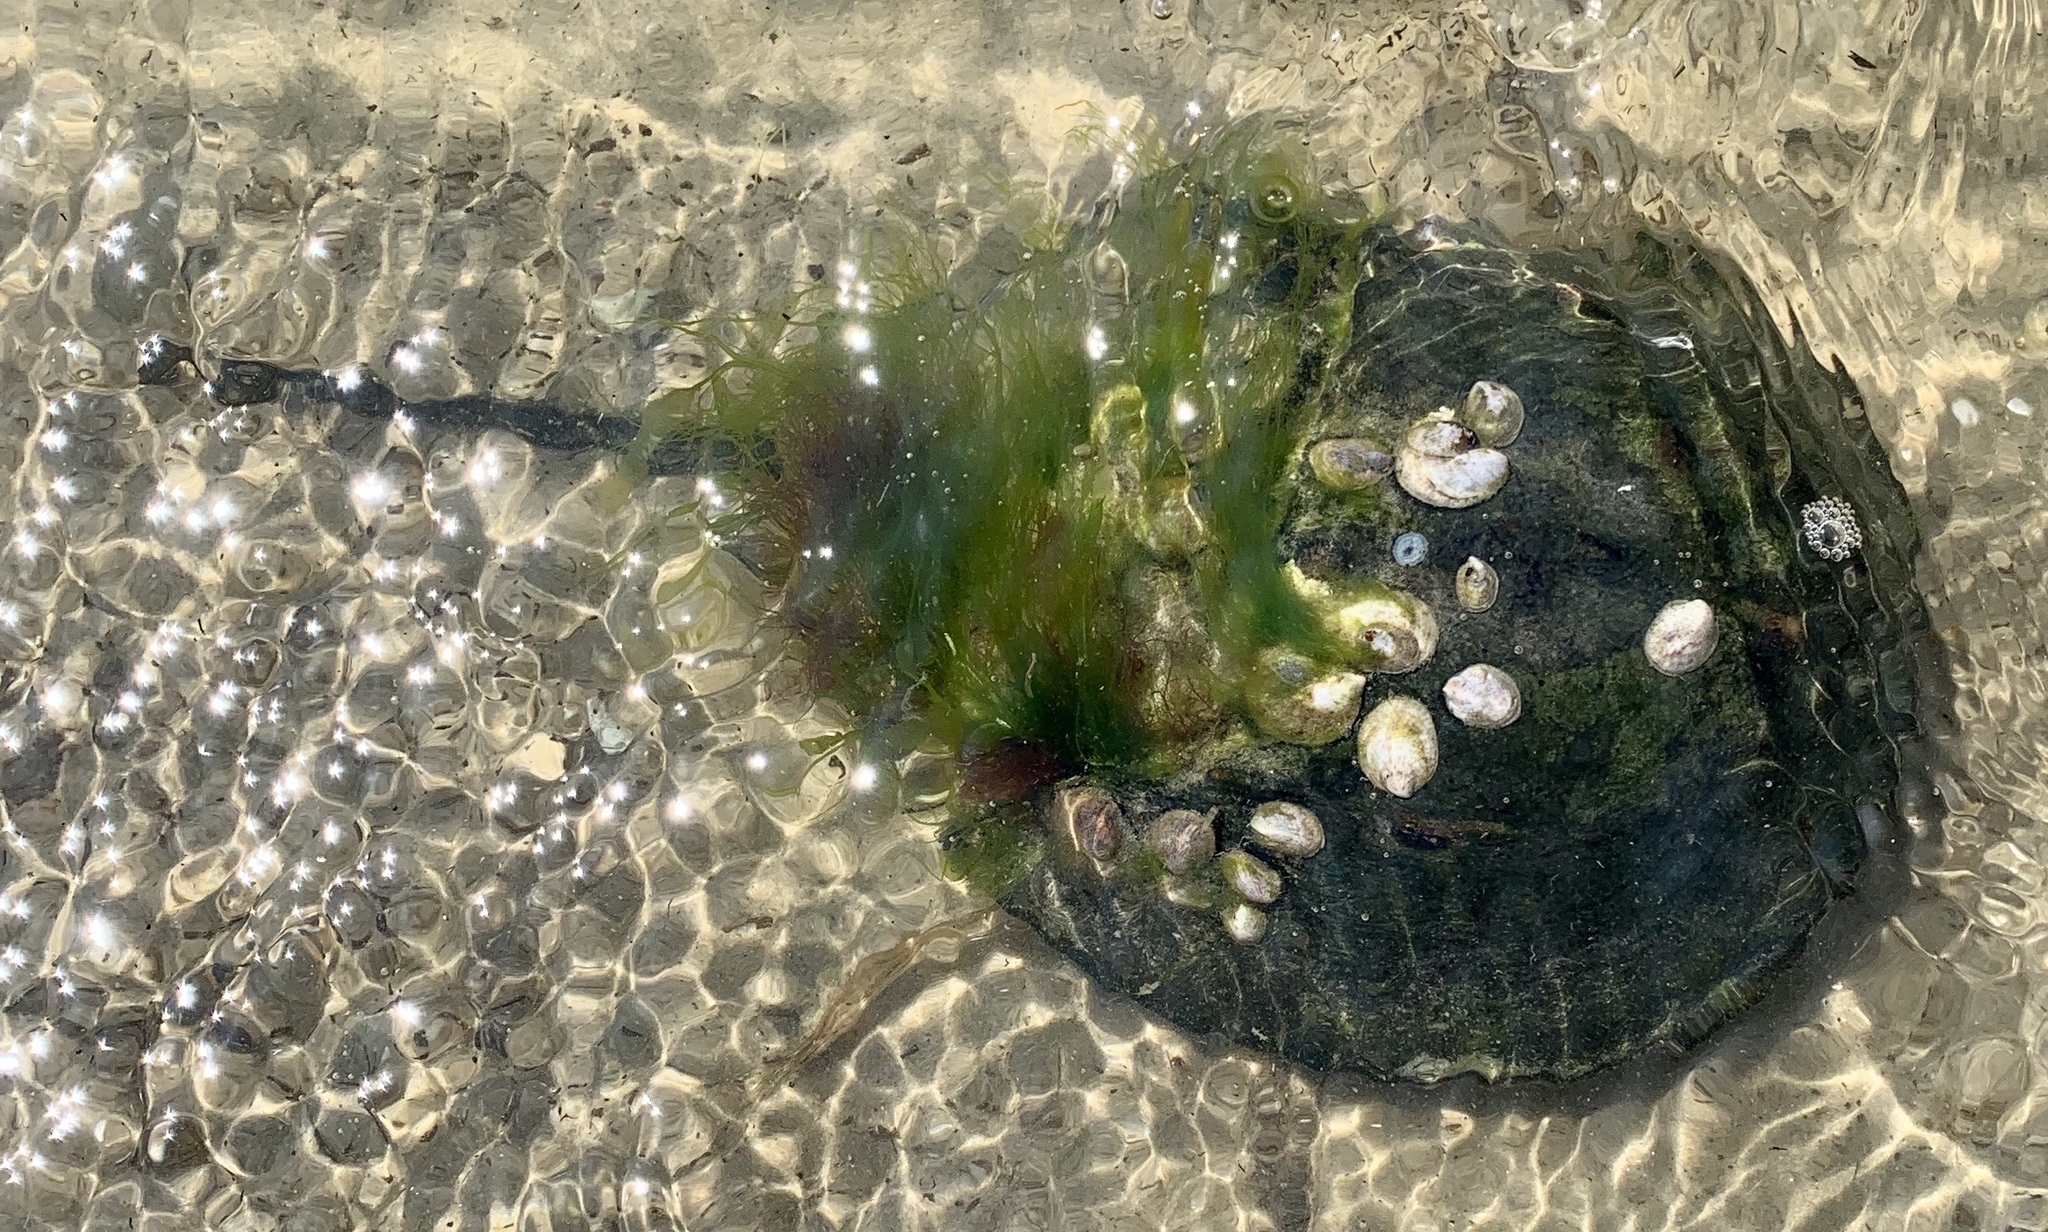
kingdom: Animalia
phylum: Arthropoda
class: Merostomata
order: Xiphosurida
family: Limulidae
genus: Limulus
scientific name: Limulus polyphemus
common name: Horseshoe crab
